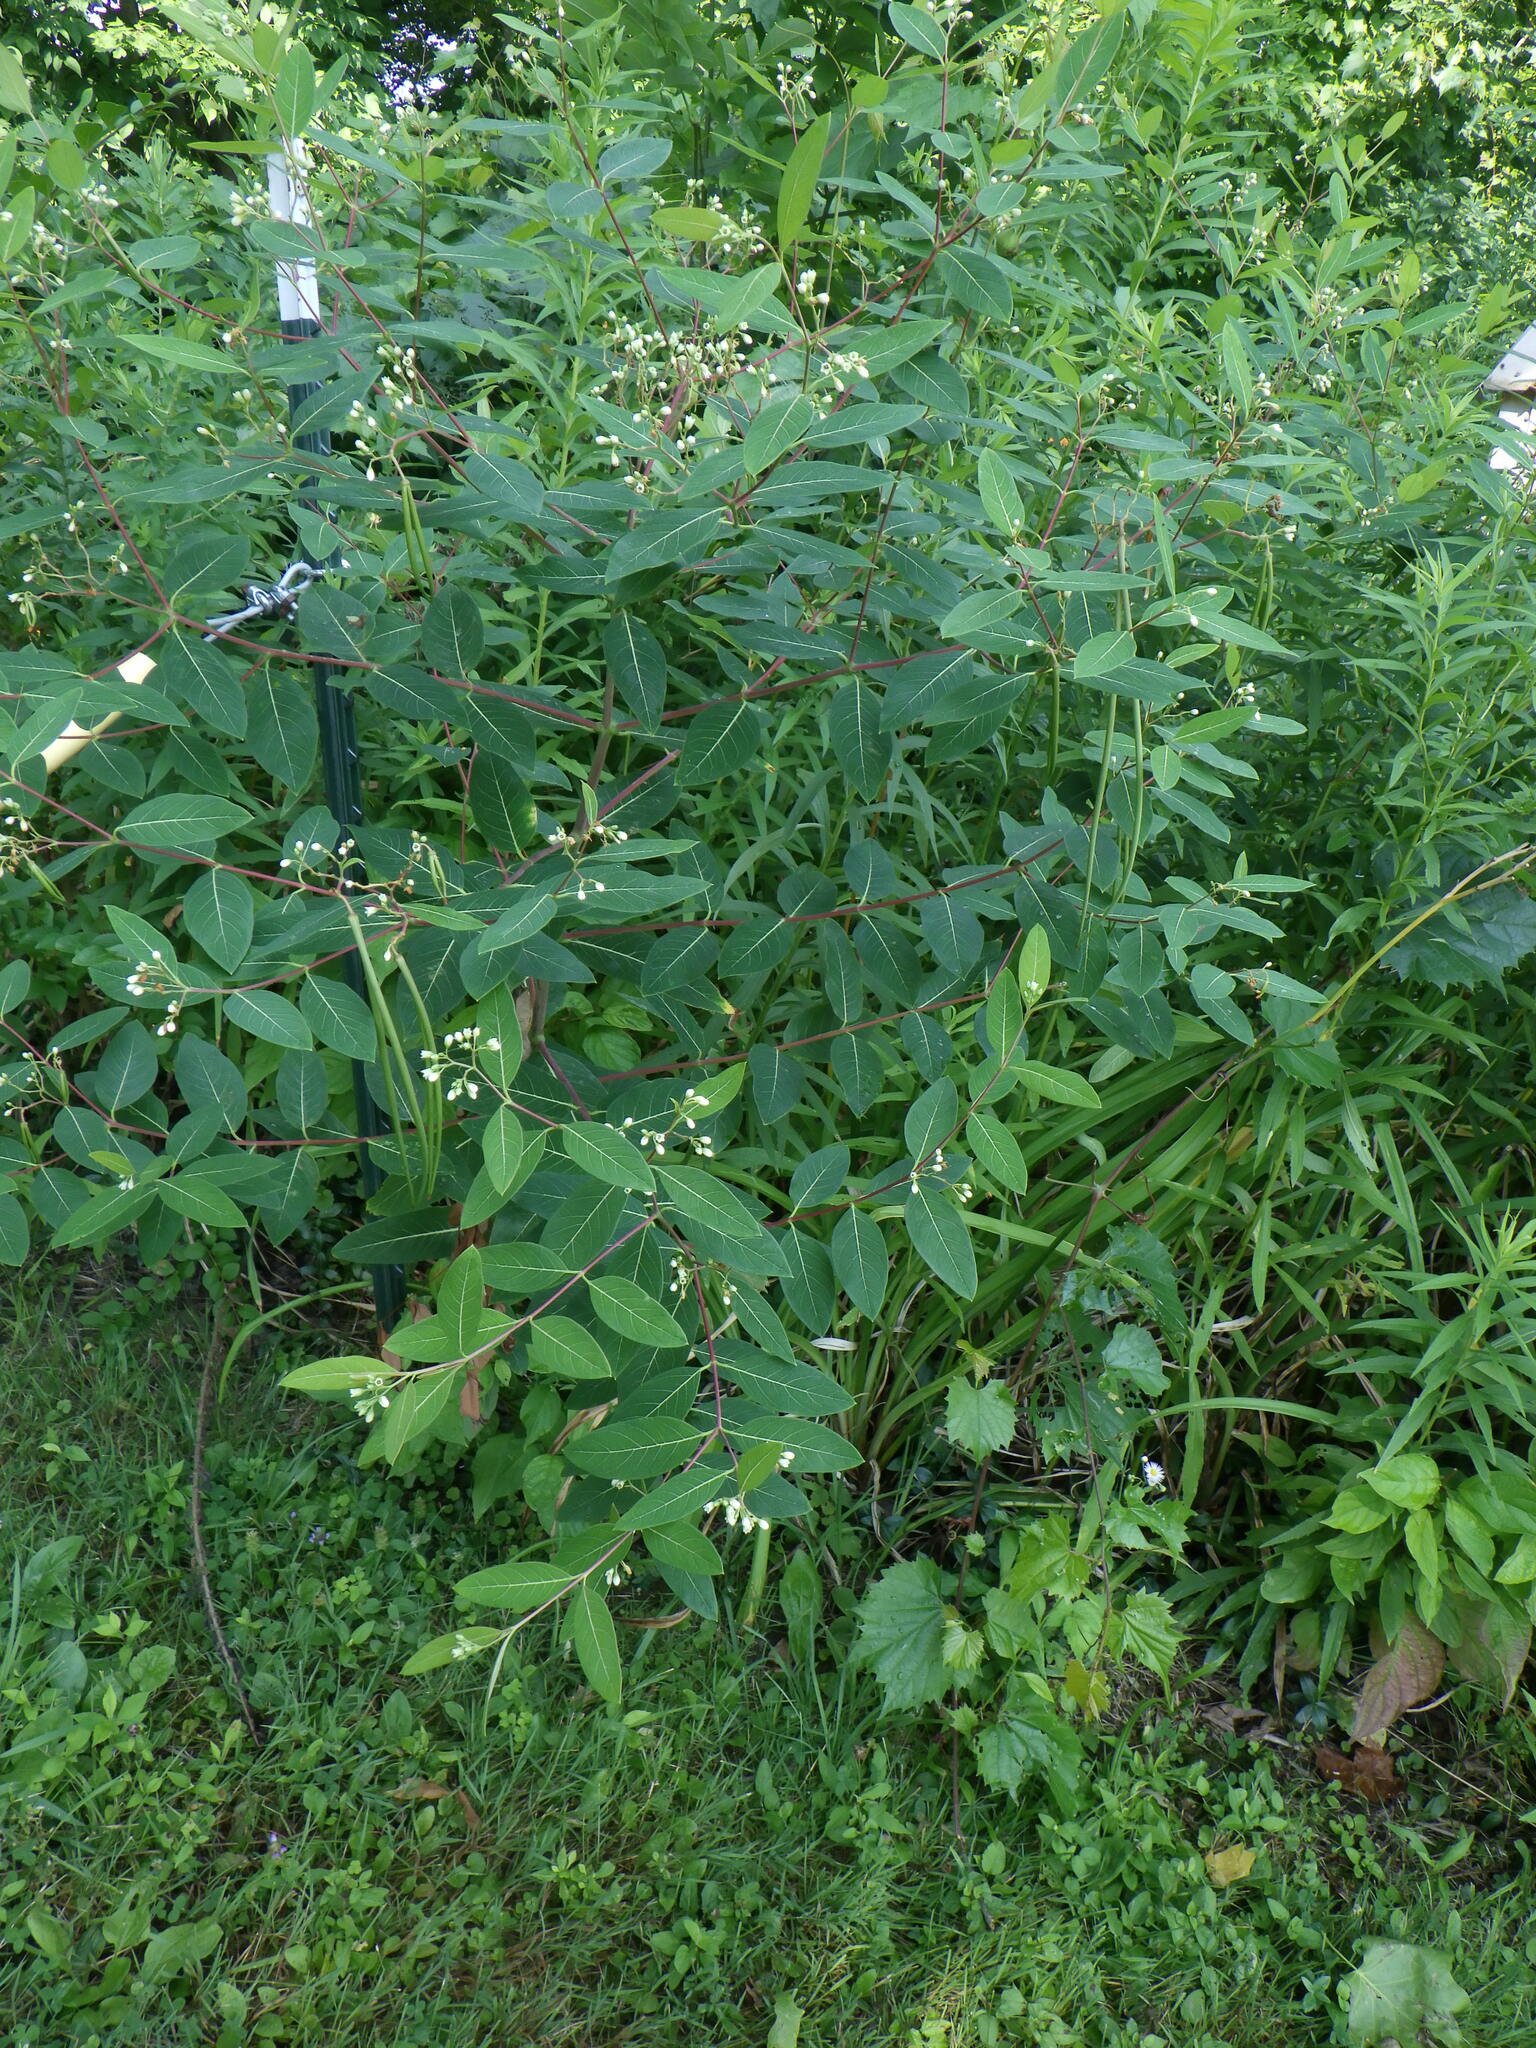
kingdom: Plantae
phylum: Tracheophyta
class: Magnoliopsida
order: Gentianales
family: Apocynaceae
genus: Apocynum
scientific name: Apocynum cannabinum
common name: Hemp dogbane
